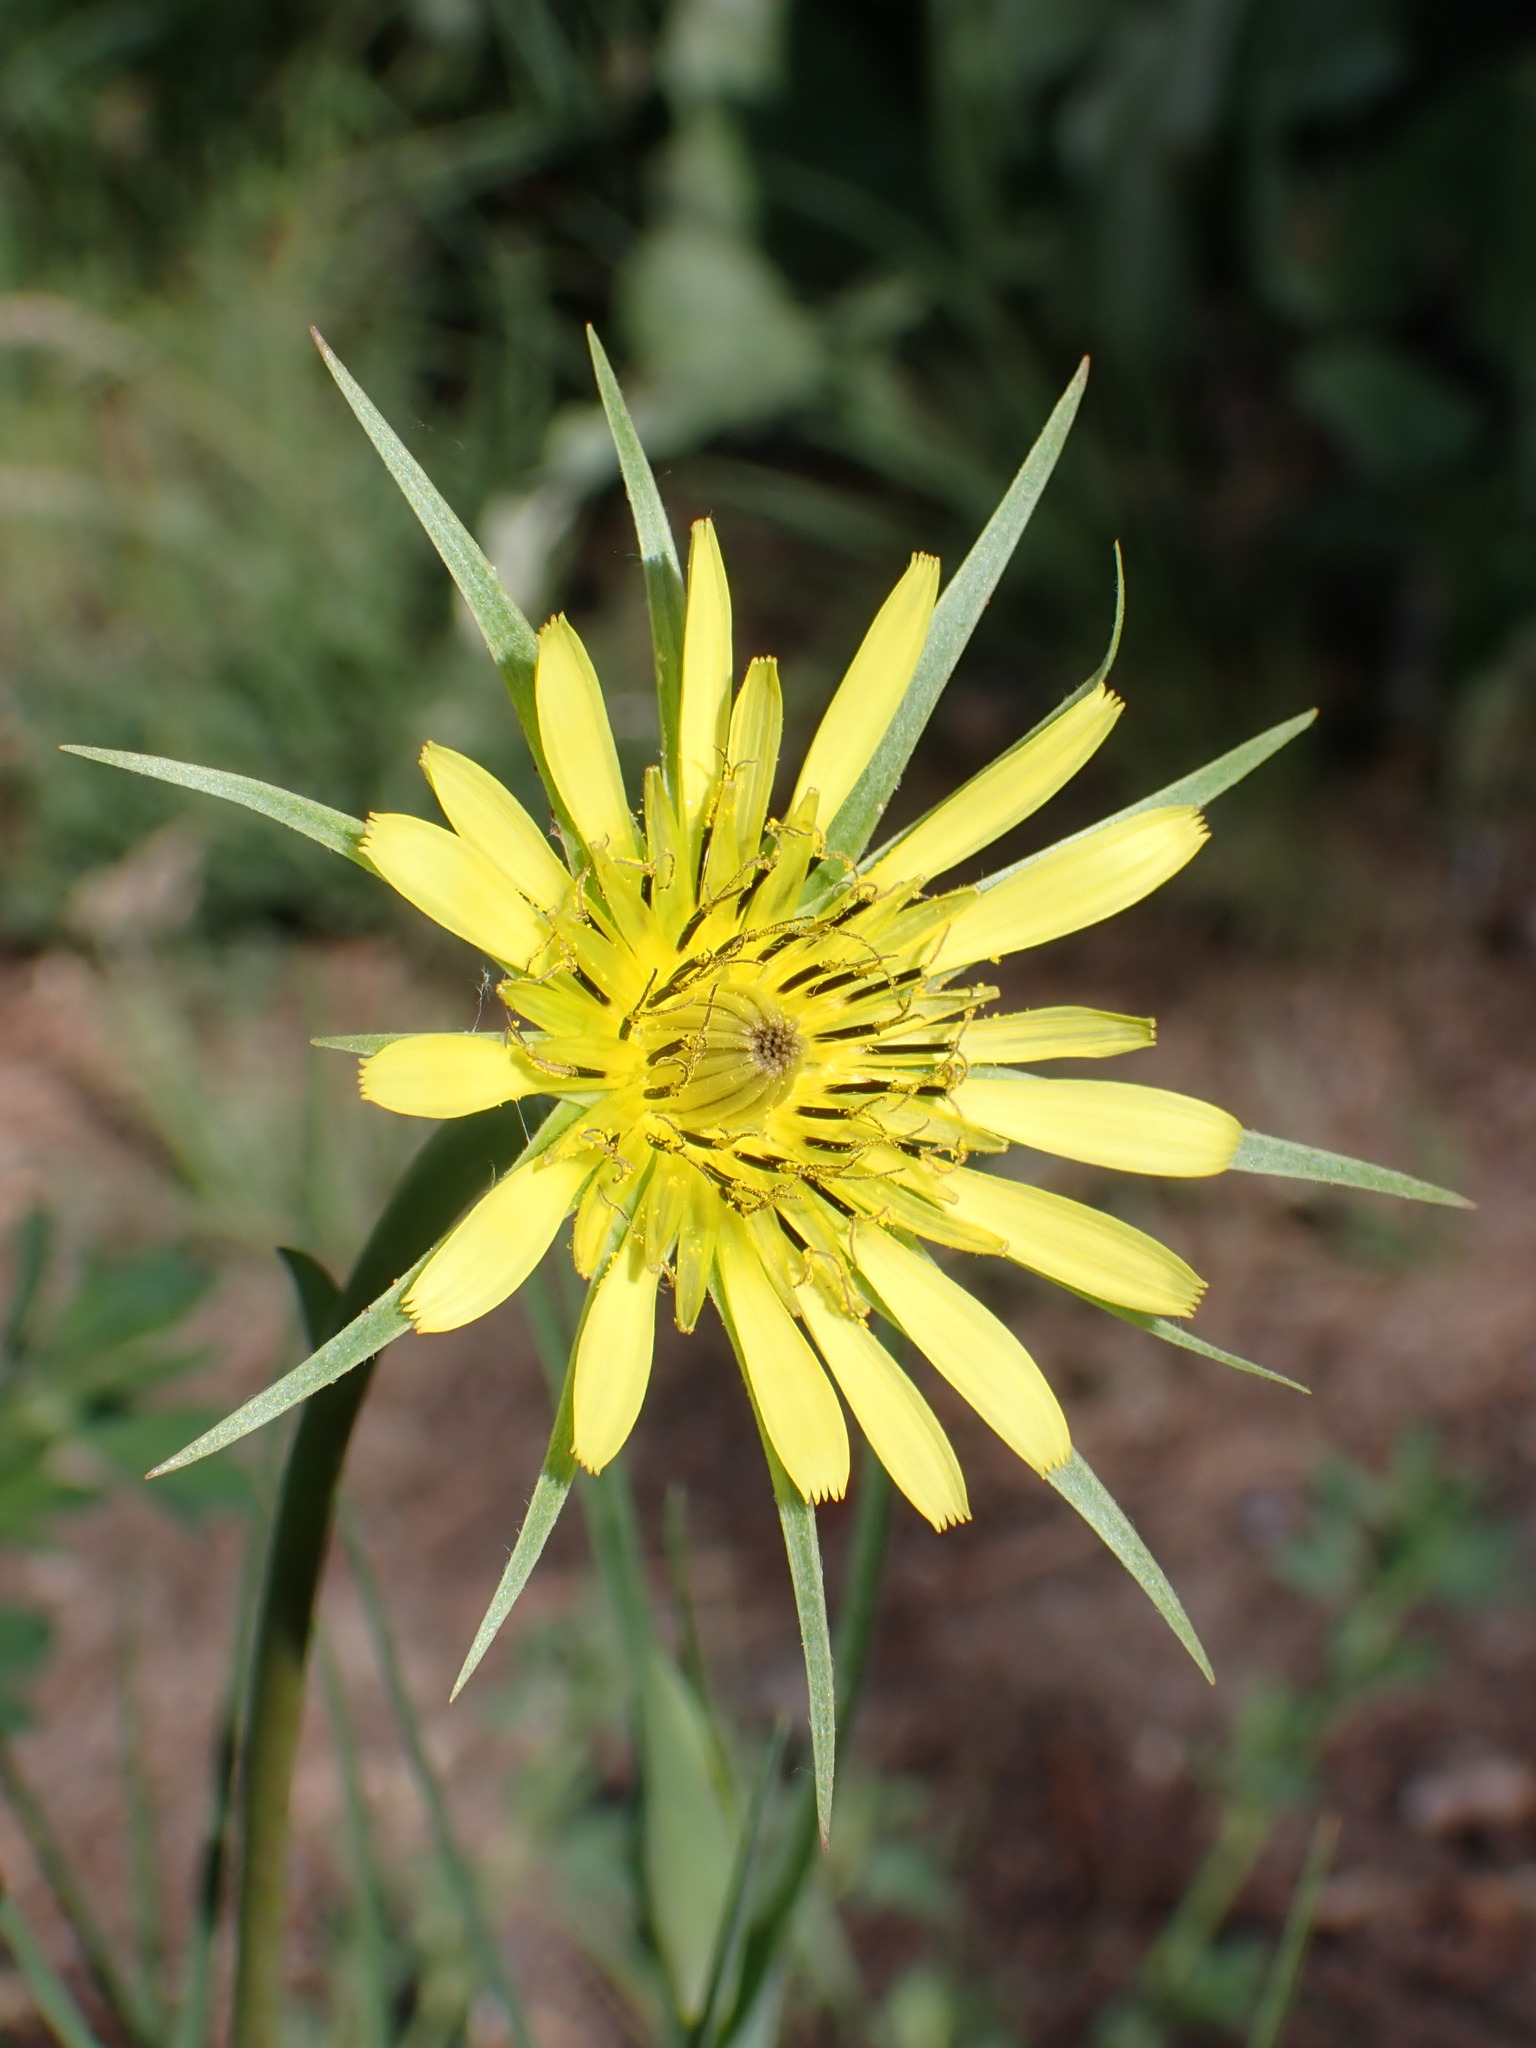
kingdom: Plantae
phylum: Tracheophyta
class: Magnoliopsida
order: Asterales
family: Asteraceae
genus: Tragopogon
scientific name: Tragopogon dubius
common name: Yellow salsify
